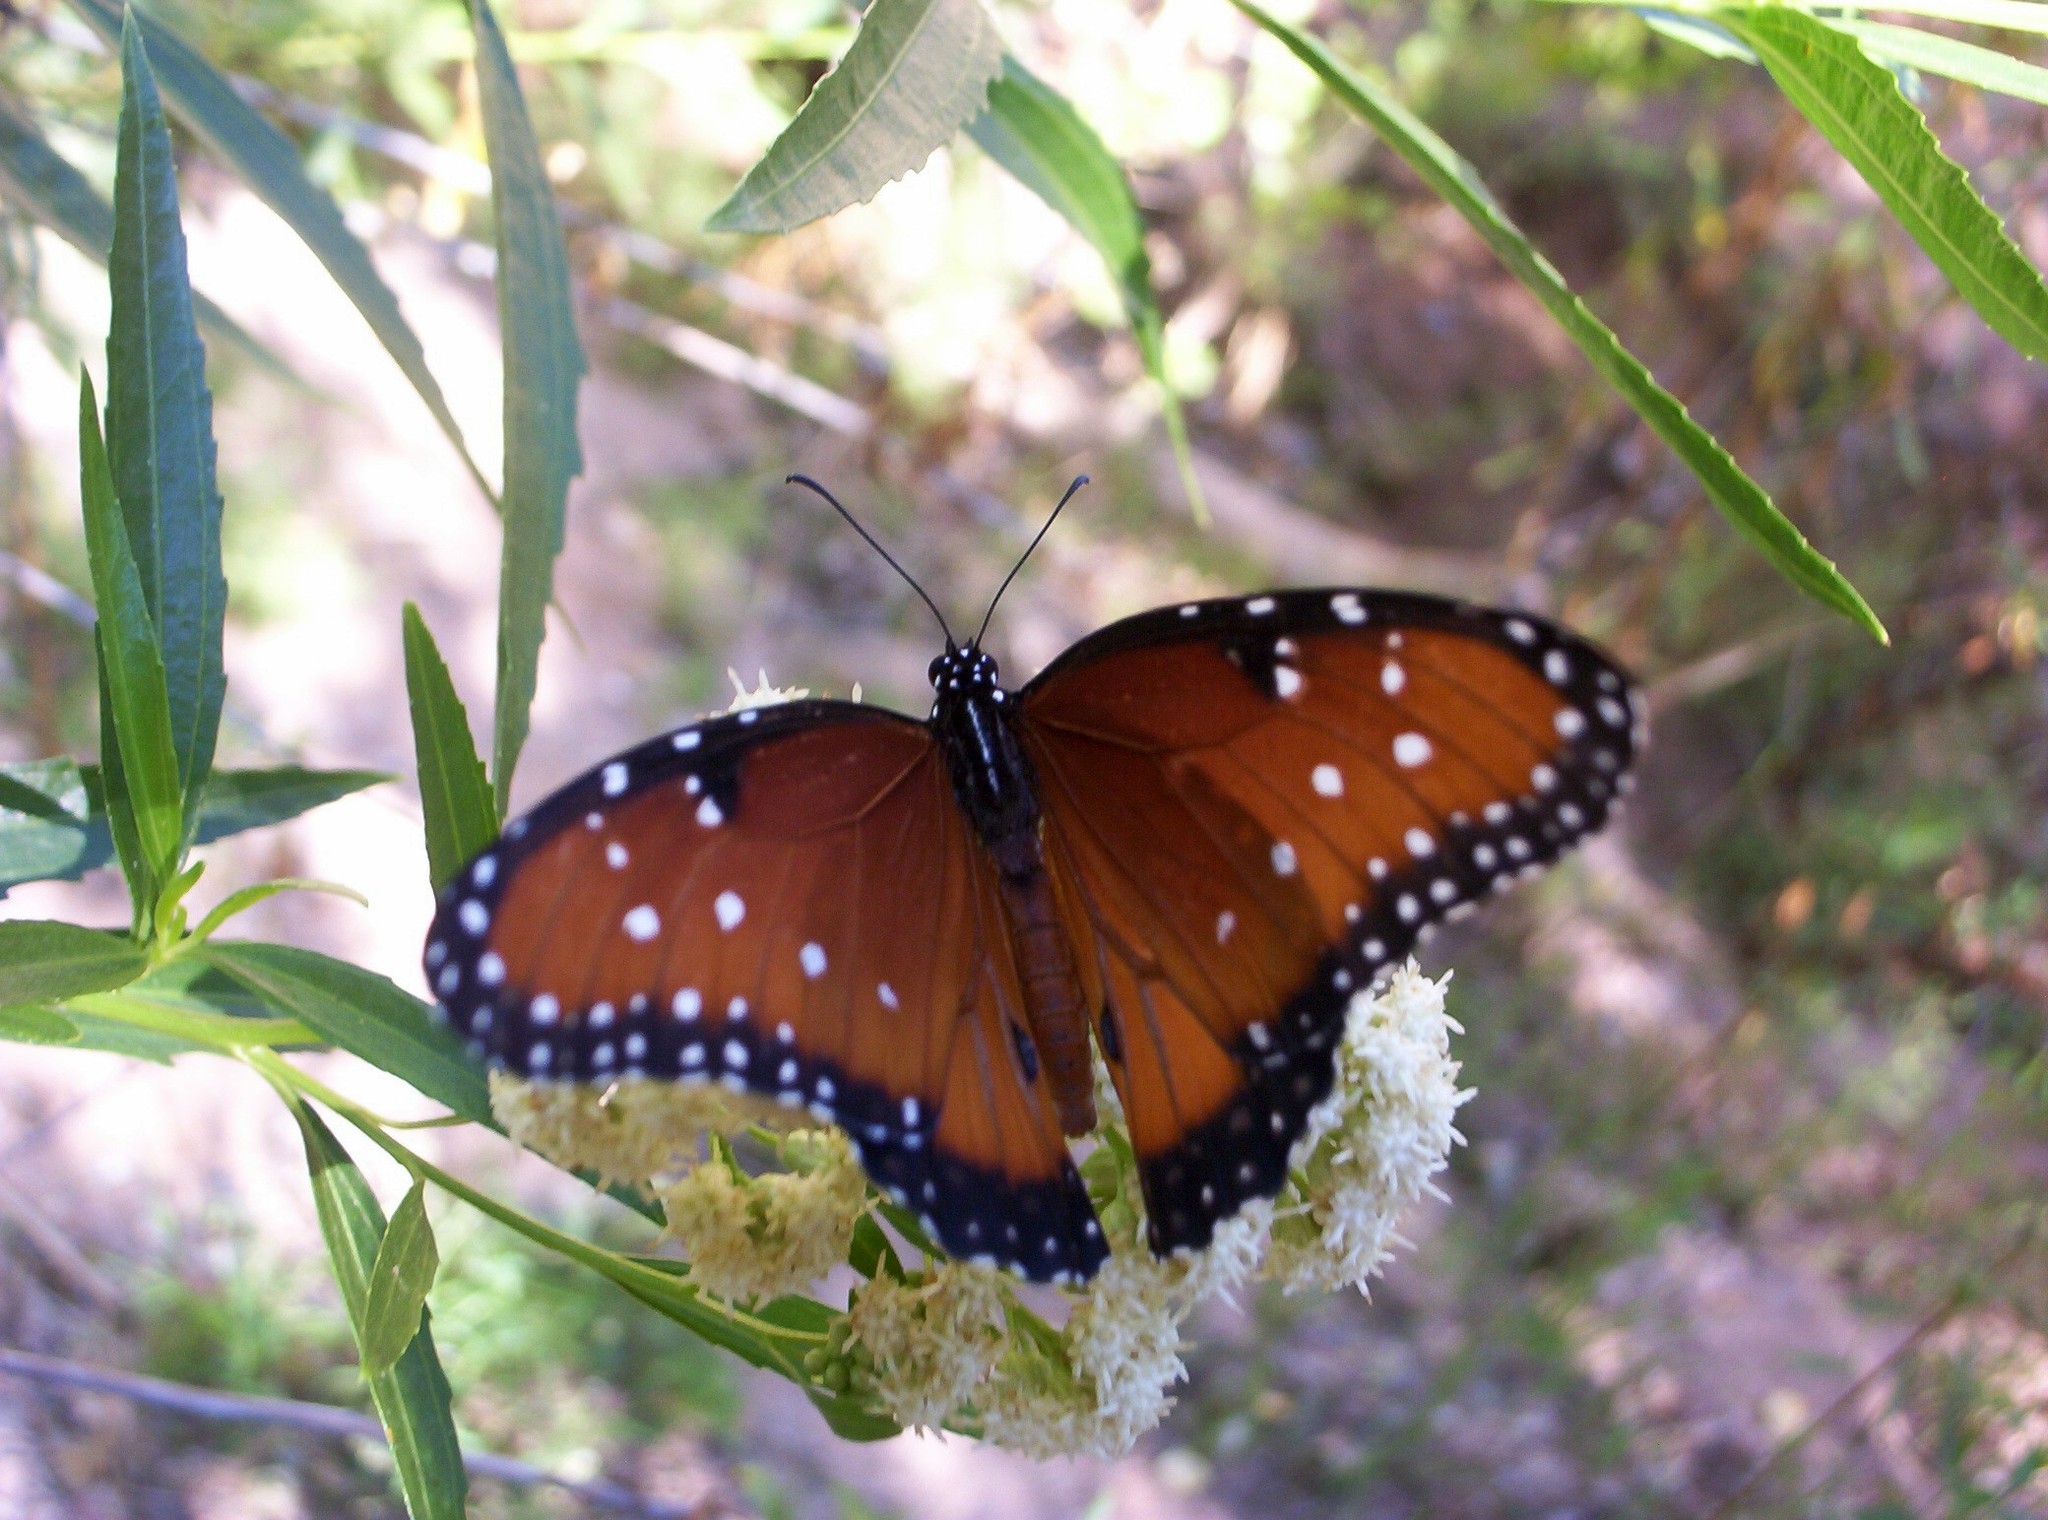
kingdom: Animalia
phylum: Arthropoda
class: Insecta
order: Lepidoptera
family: Nymphalidae
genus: Danaus
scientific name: Danaus gilippus
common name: Queen
